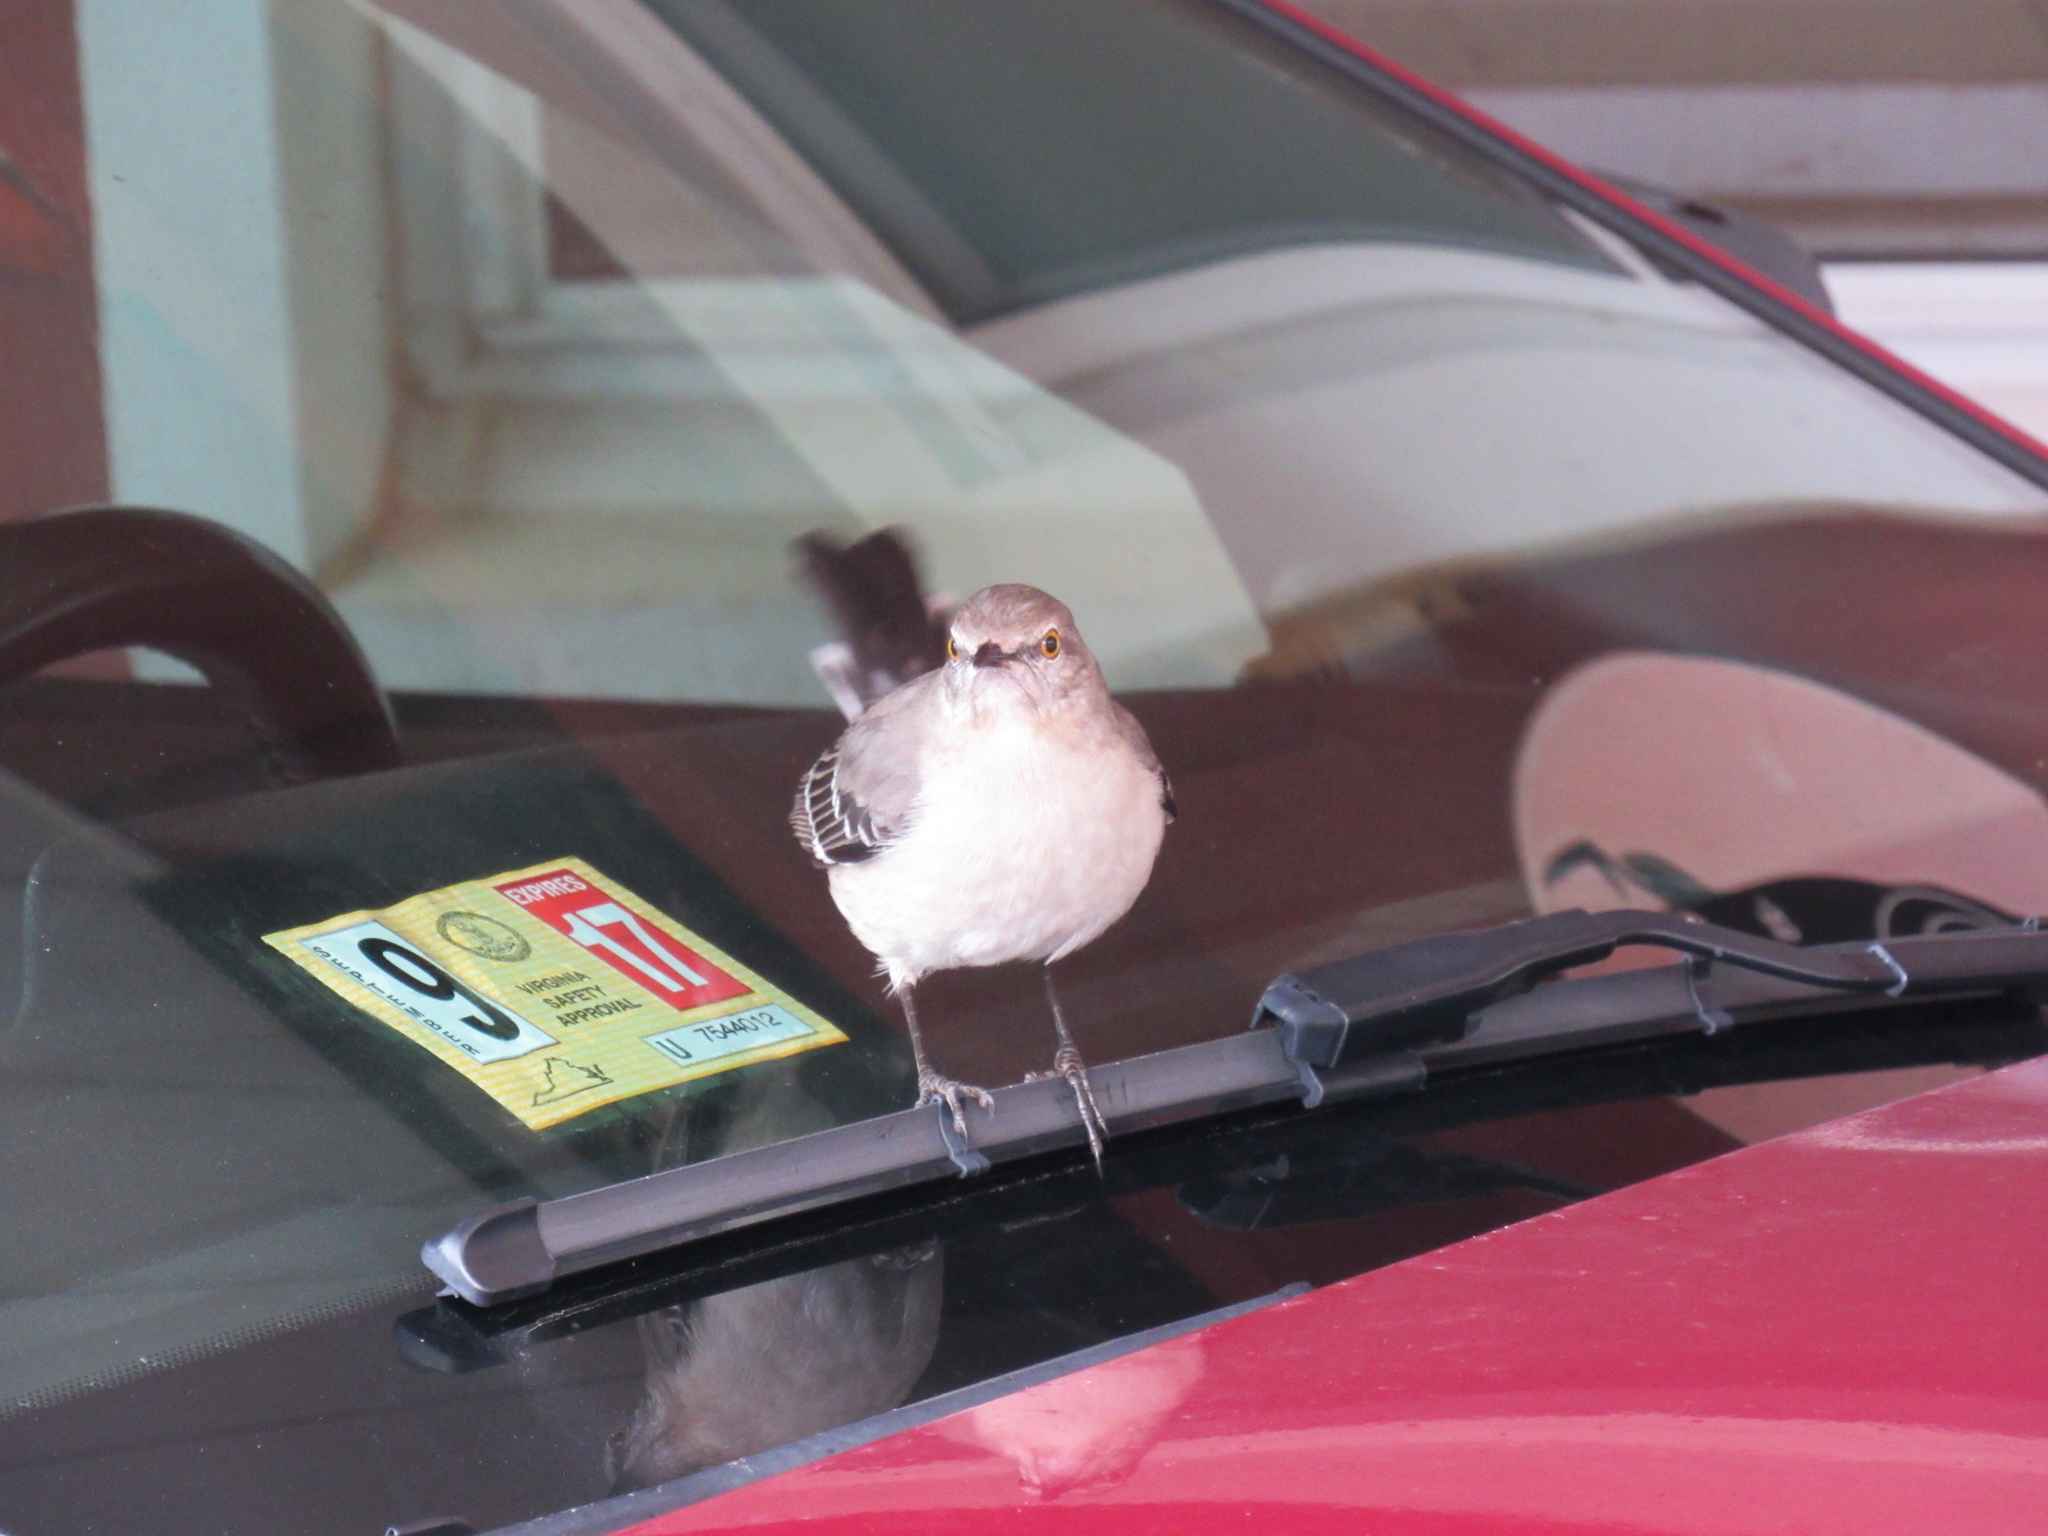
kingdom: Animalia
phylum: Chordata
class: Aves
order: Passeriformes
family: Mimidae
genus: Mimus
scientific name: Mimus polyglottos
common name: Northern mockingbird
